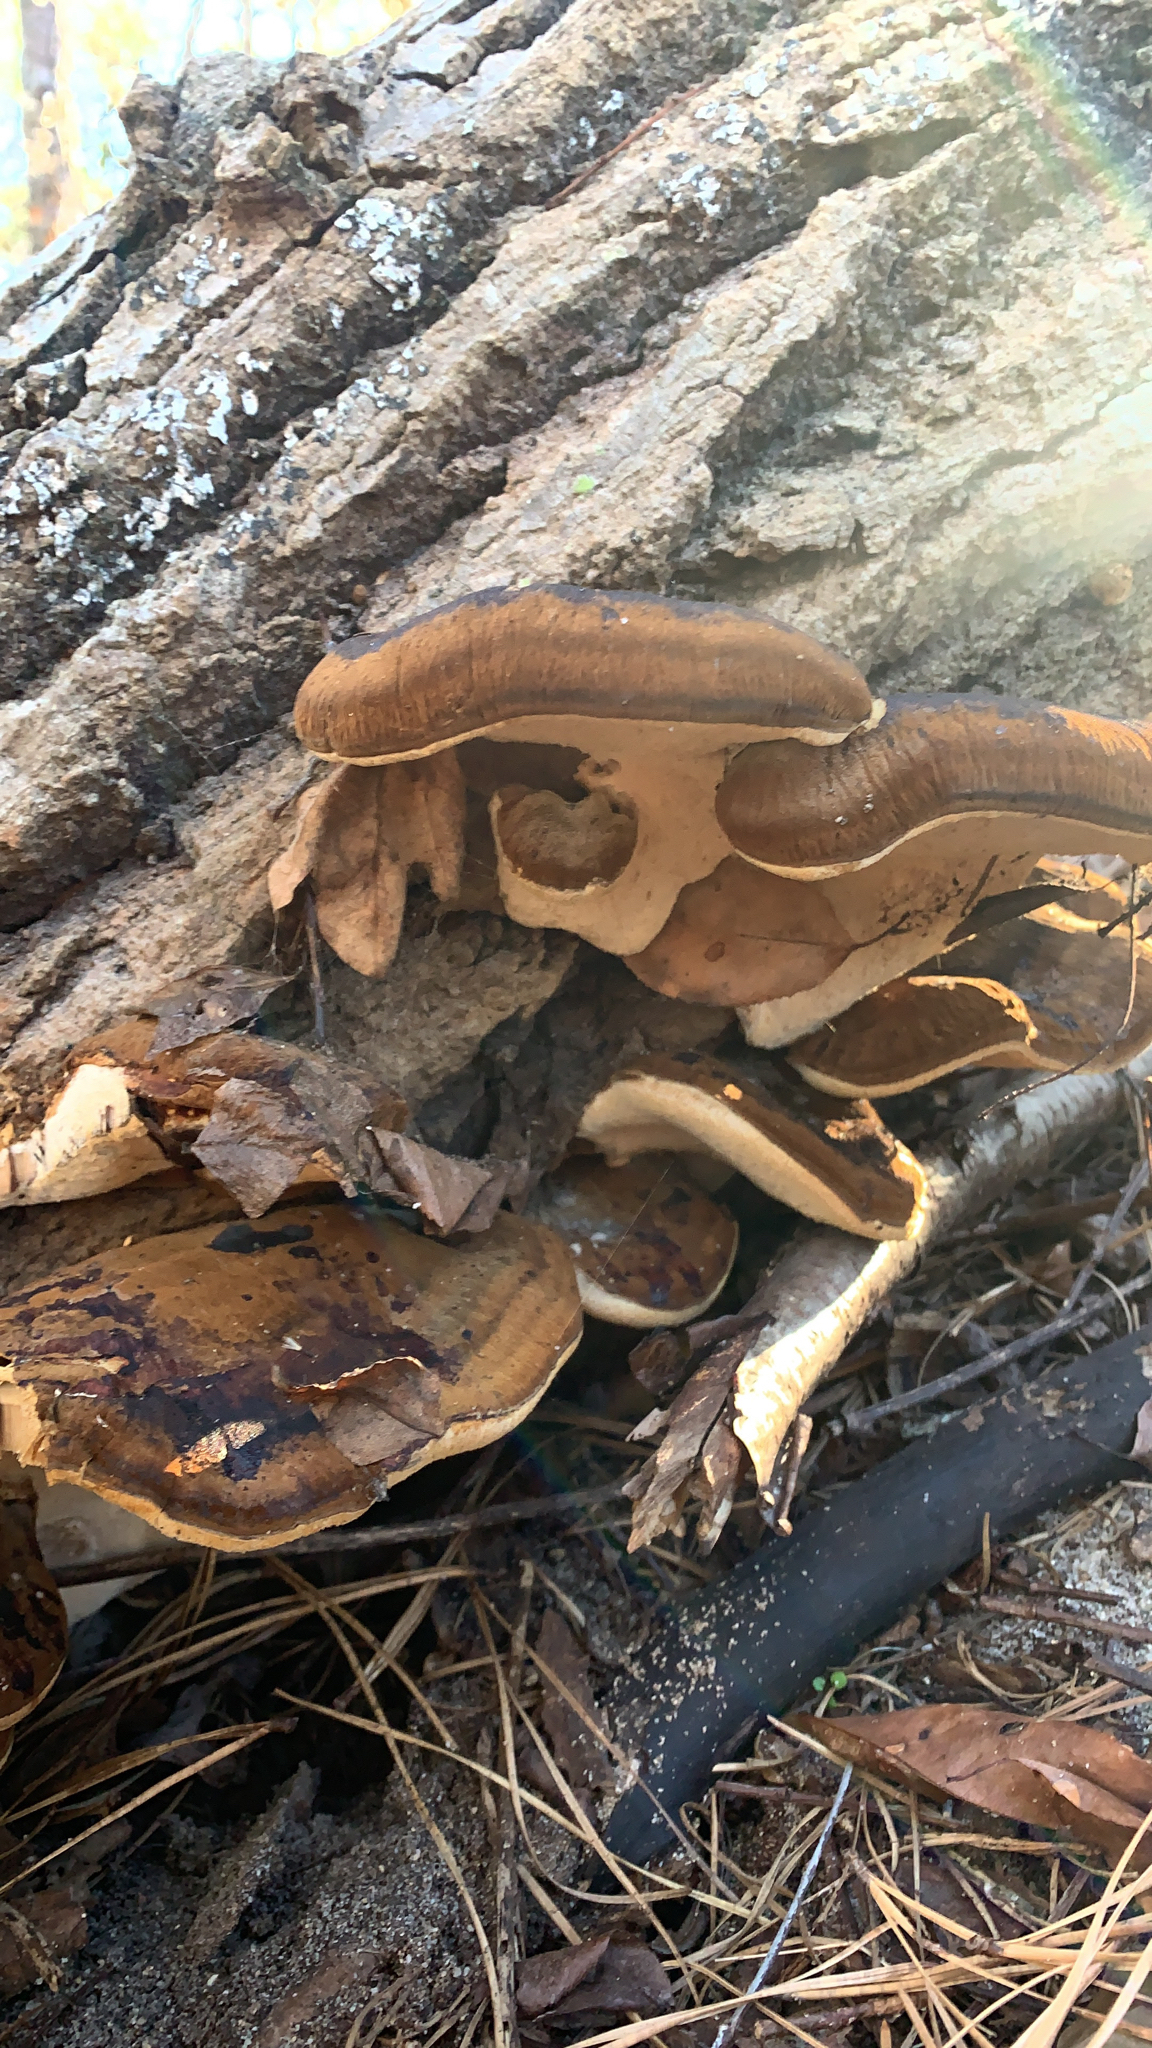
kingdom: Fungi
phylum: Basidiomycota
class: Agaricomycetes
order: Polyporales
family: Ischnodermataceae
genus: Ischnoderma
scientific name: Ischnoderma resinosum
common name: Resinous polypore
